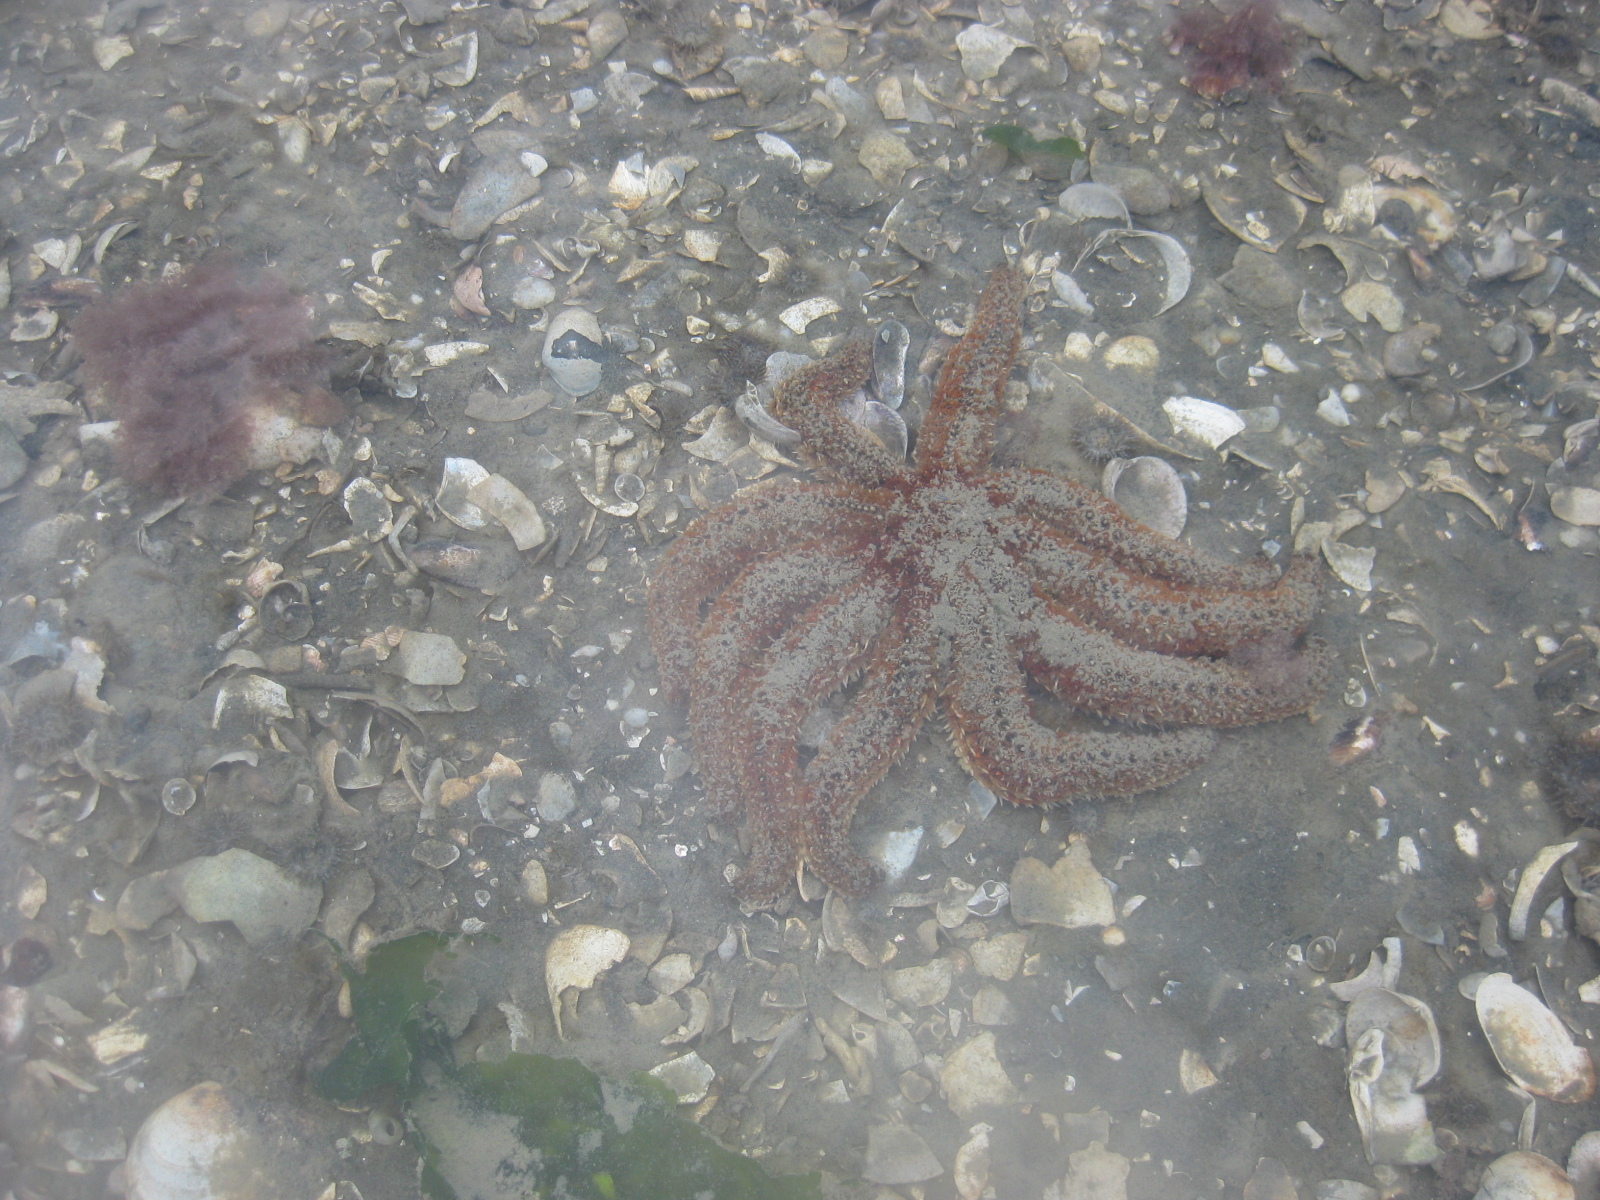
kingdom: Animalia
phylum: Echinodermata
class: Asteroidea
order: Forcipulatida
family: Asteriidae
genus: Coscinasterias
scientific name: Coscinasterias muricata
